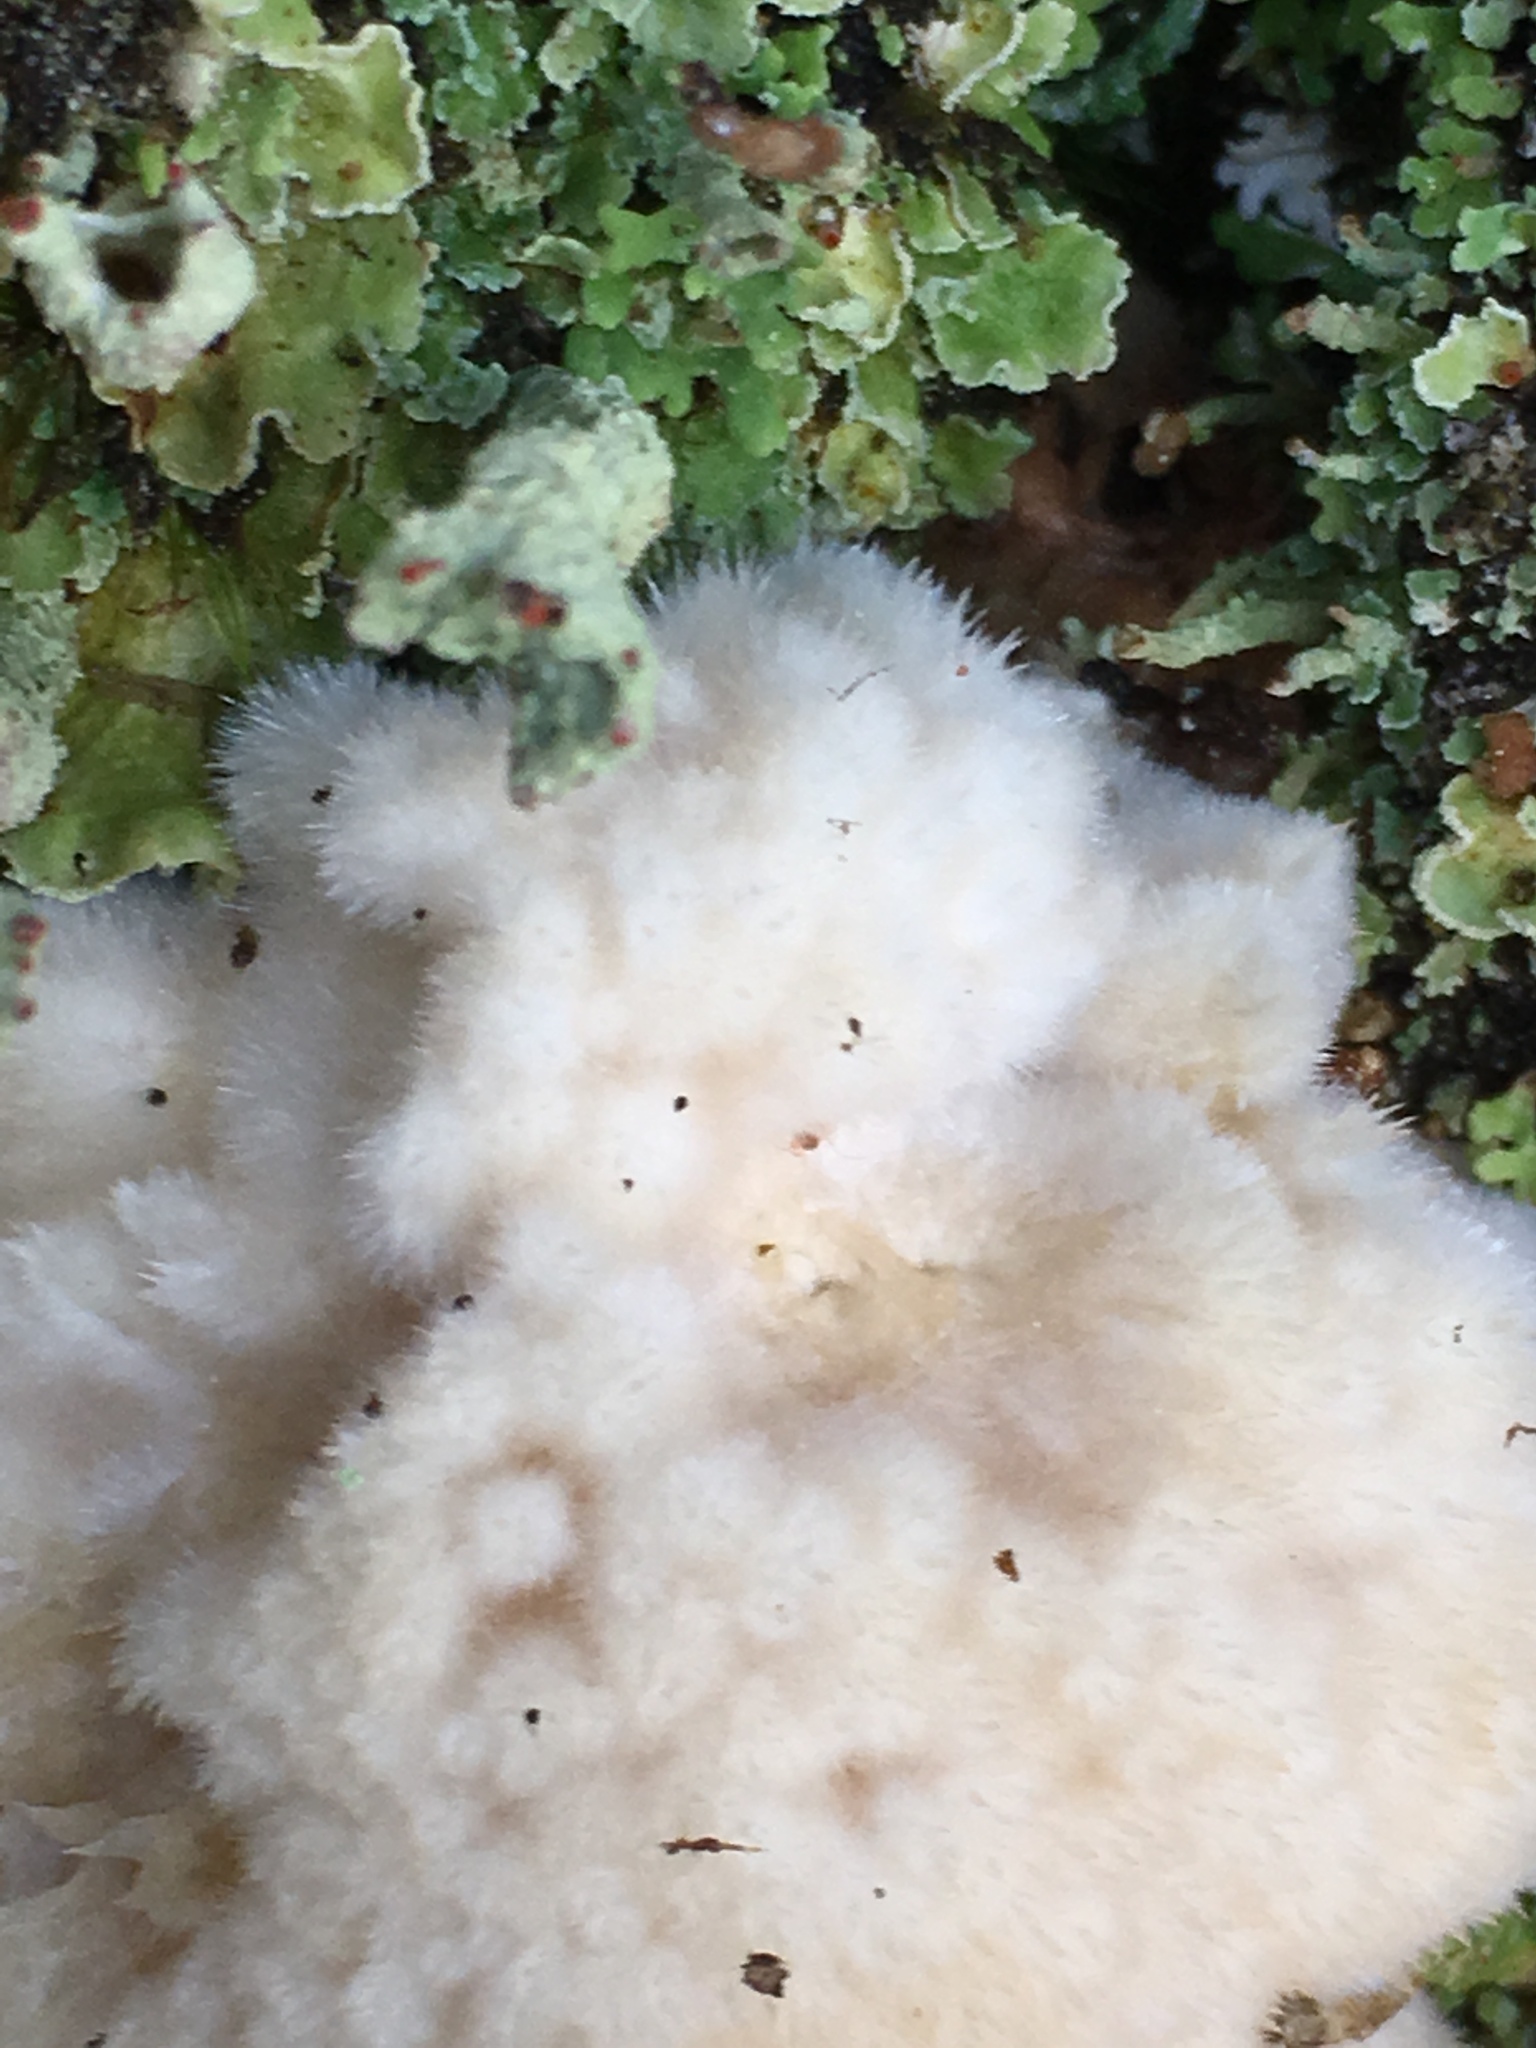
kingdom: Fungi
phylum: Basidiomycota
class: Agaricomycetes
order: Polyporales
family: Dacryobolaceae
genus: Postia
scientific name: Postia ptychogaster
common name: Powderpuff bracket
